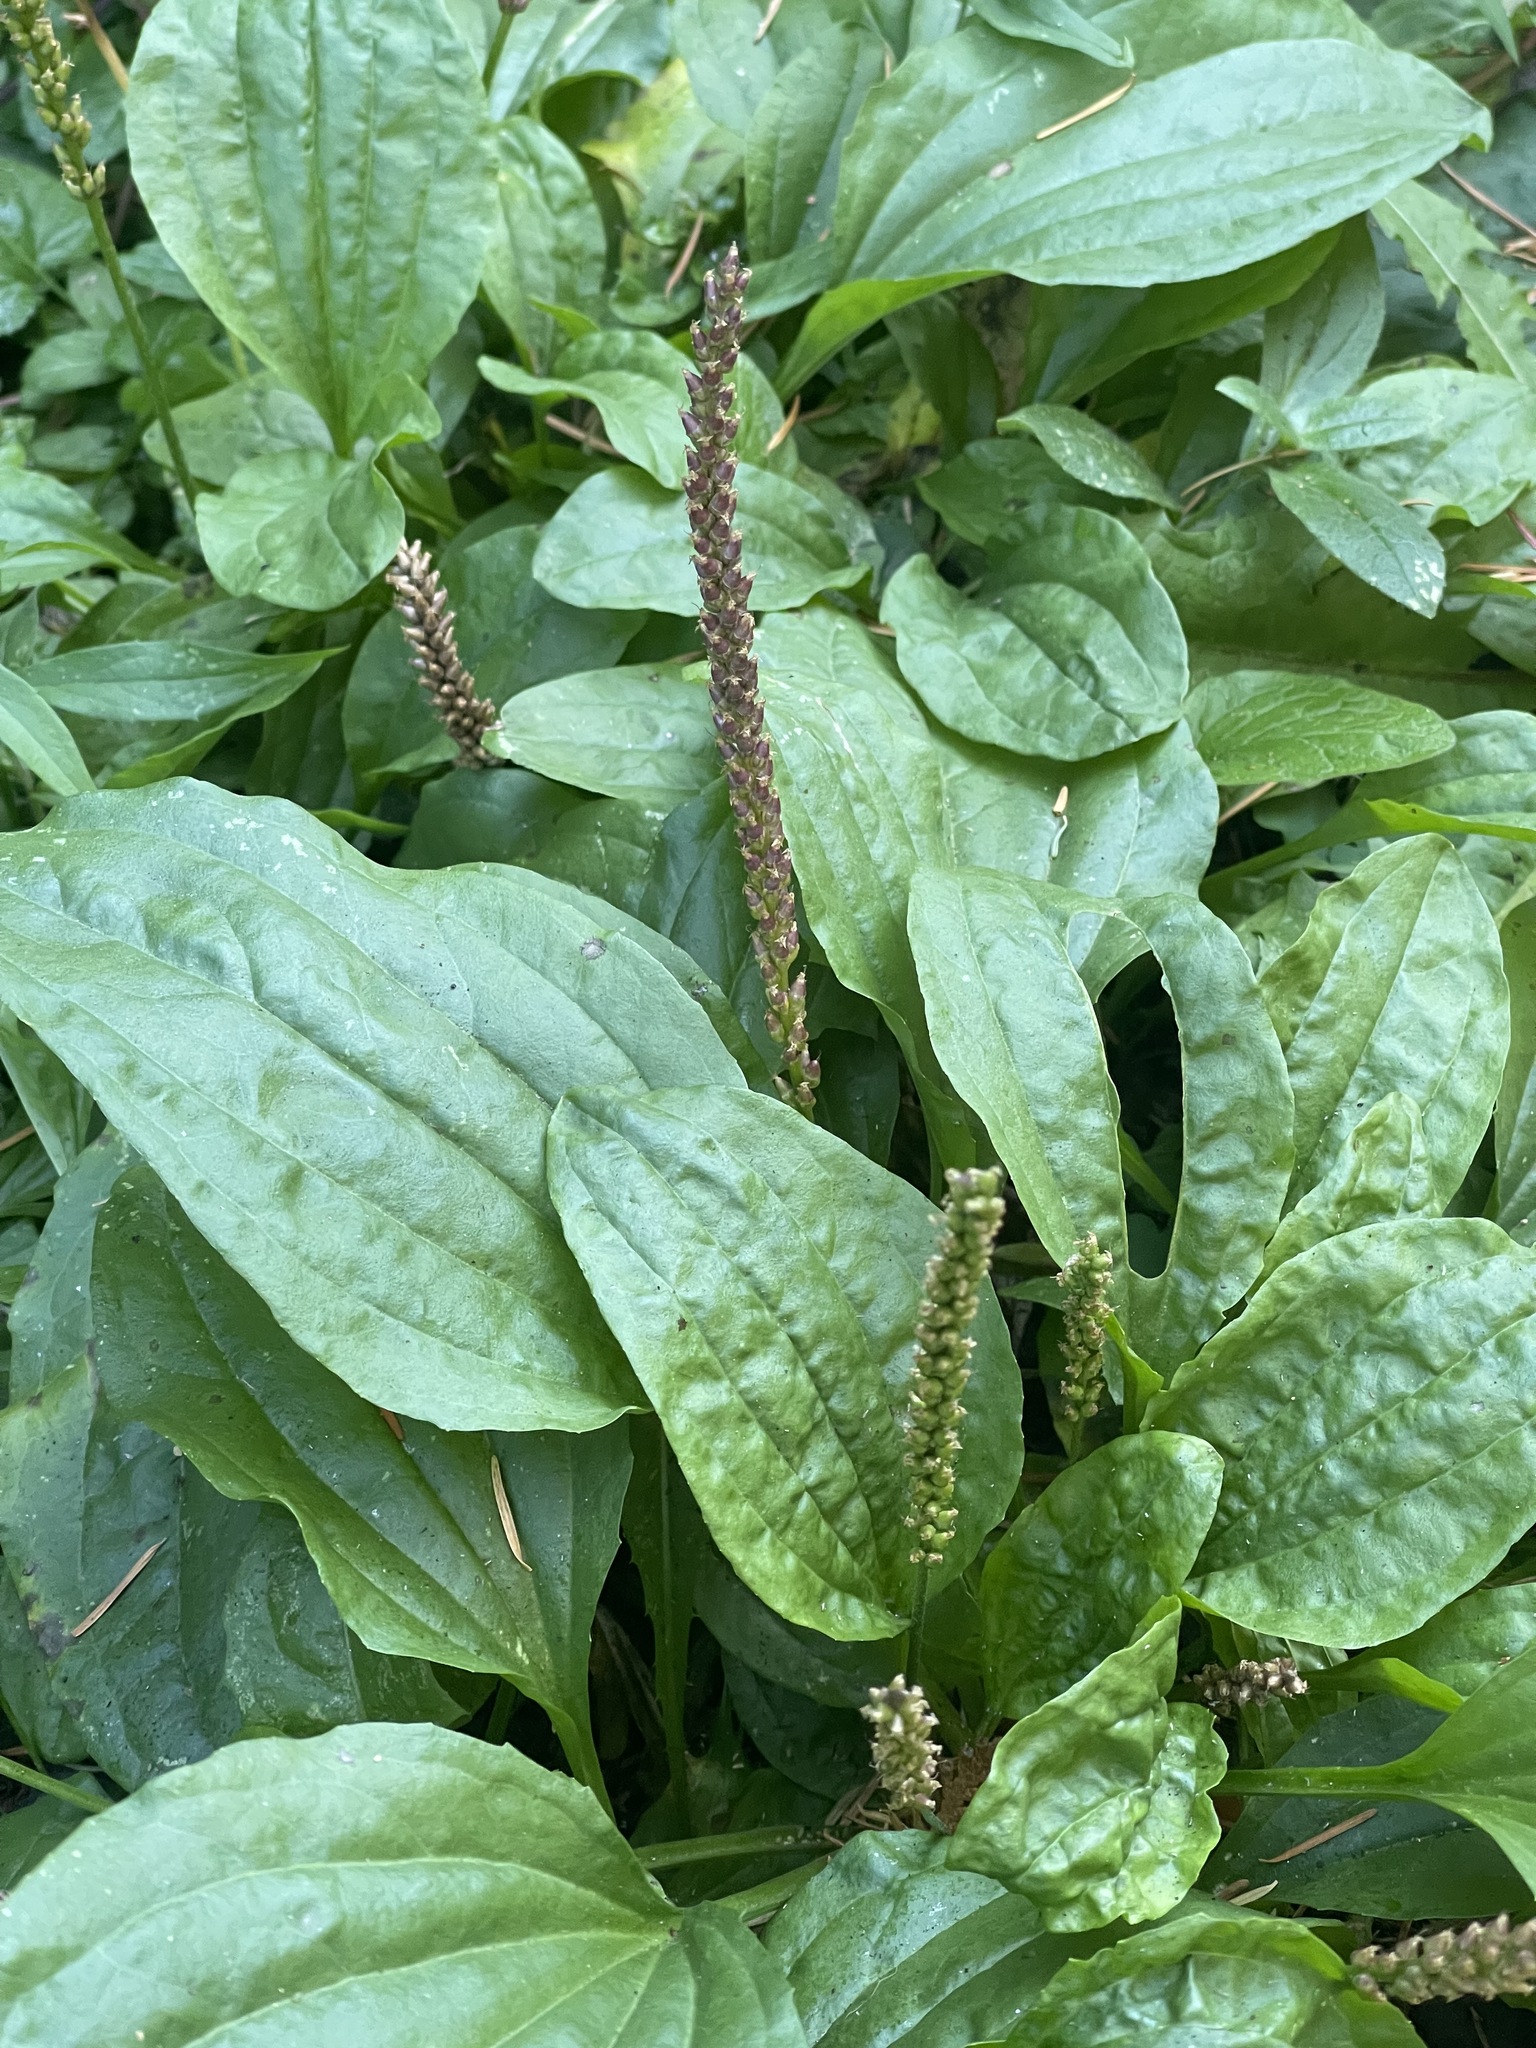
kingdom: Plantae
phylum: Tracheophyta
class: Magnoliopsida
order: Lamiales
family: Plantaginaceae
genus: Plantago
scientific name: Plantago major
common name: Common plantain
